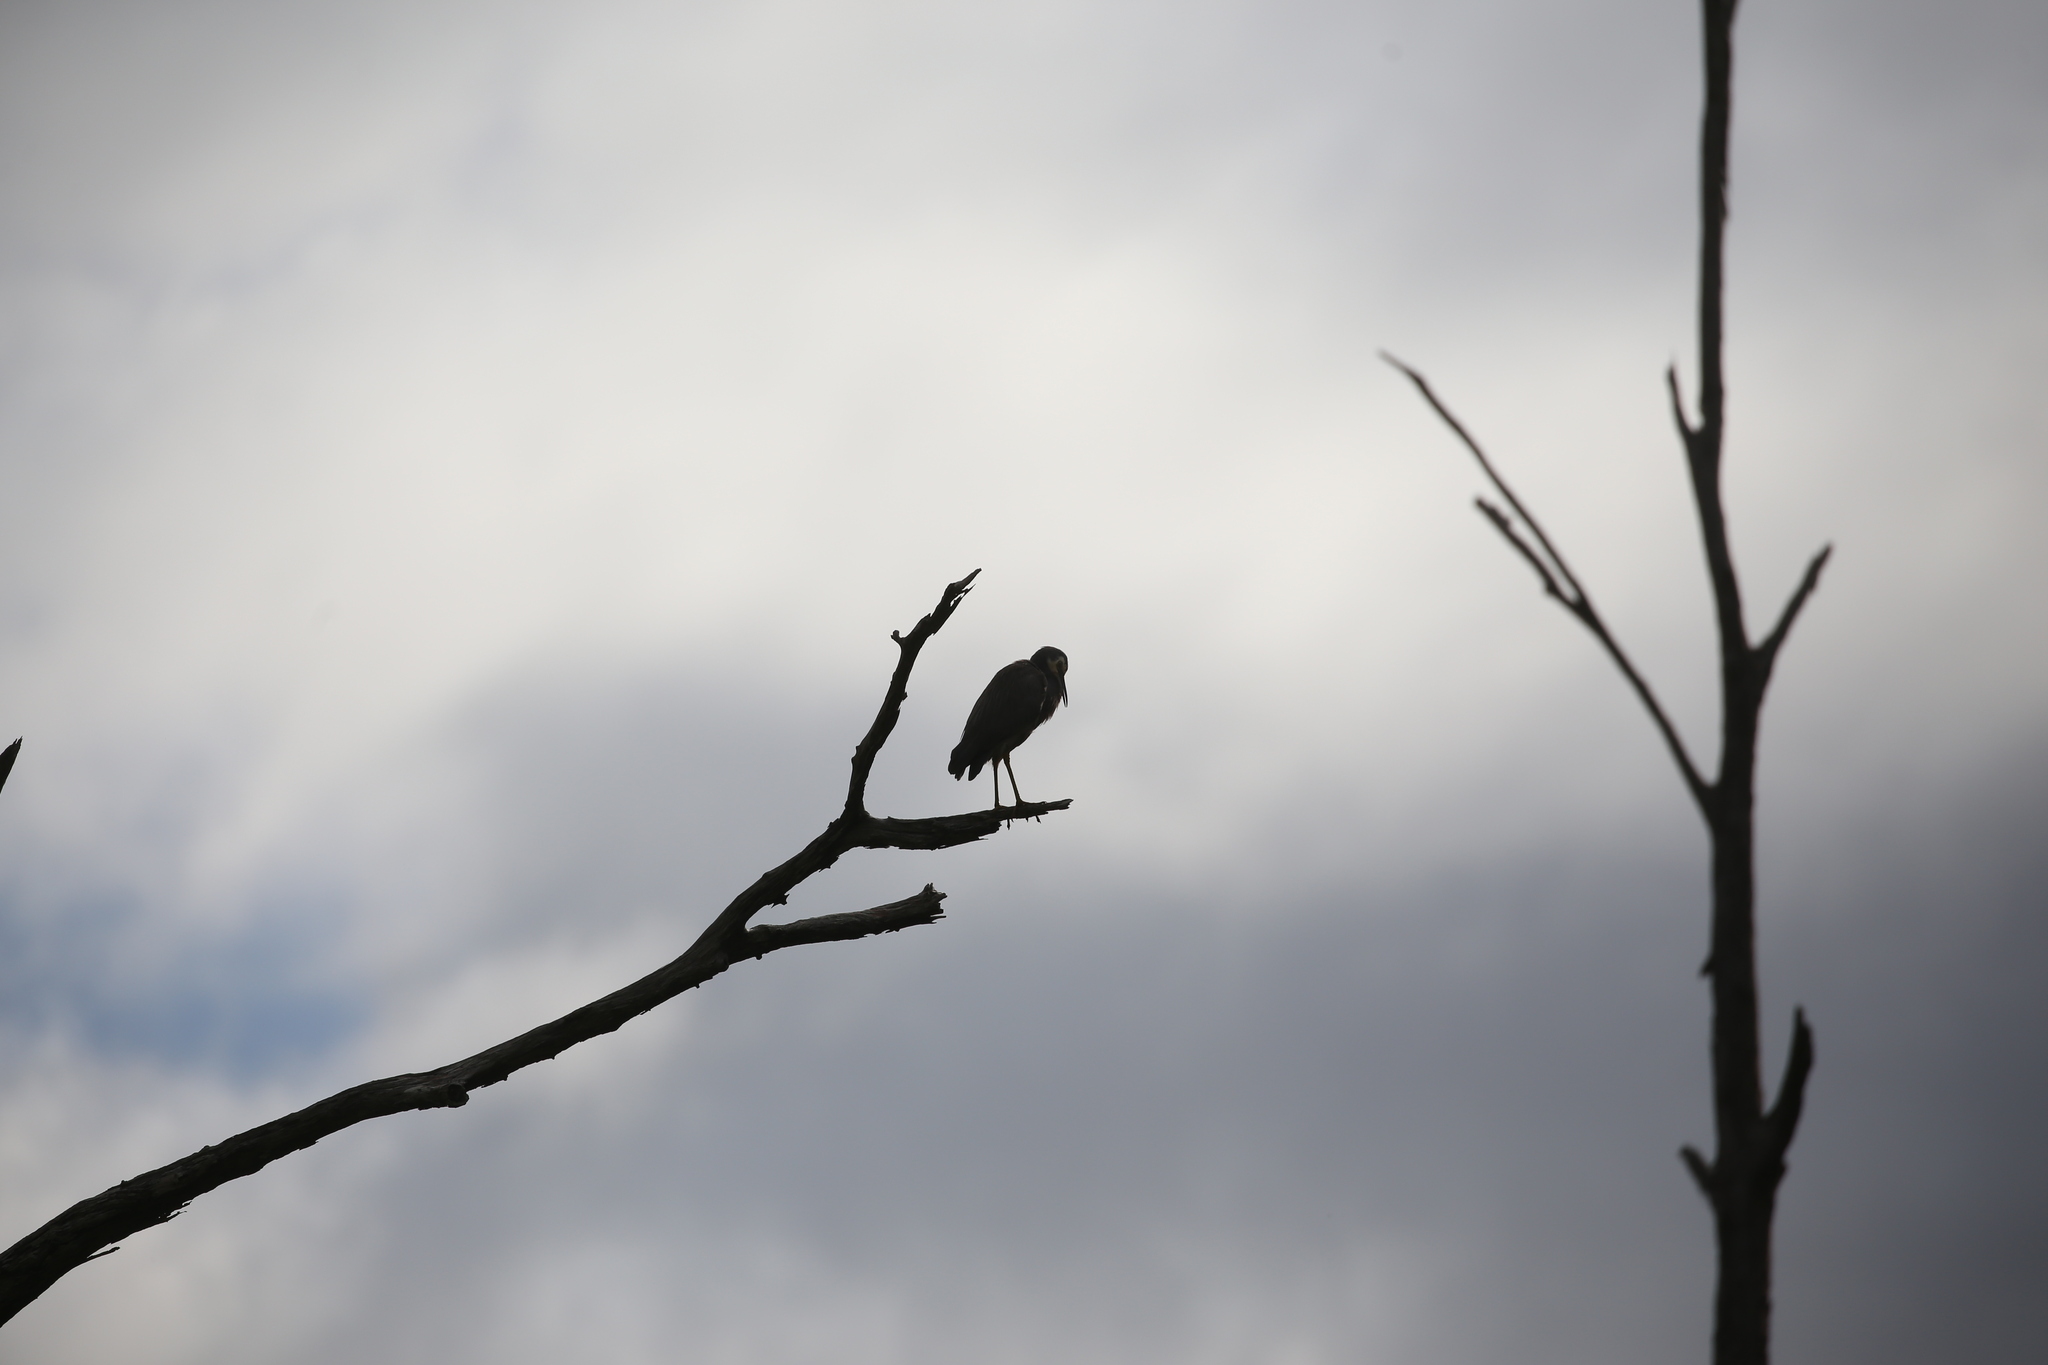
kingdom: Animalia
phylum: Chordata
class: Aves
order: Pelecaniformes
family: Ardeidae
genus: Egretta
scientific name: Egretta novaehollandiae
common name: White-faced heron
